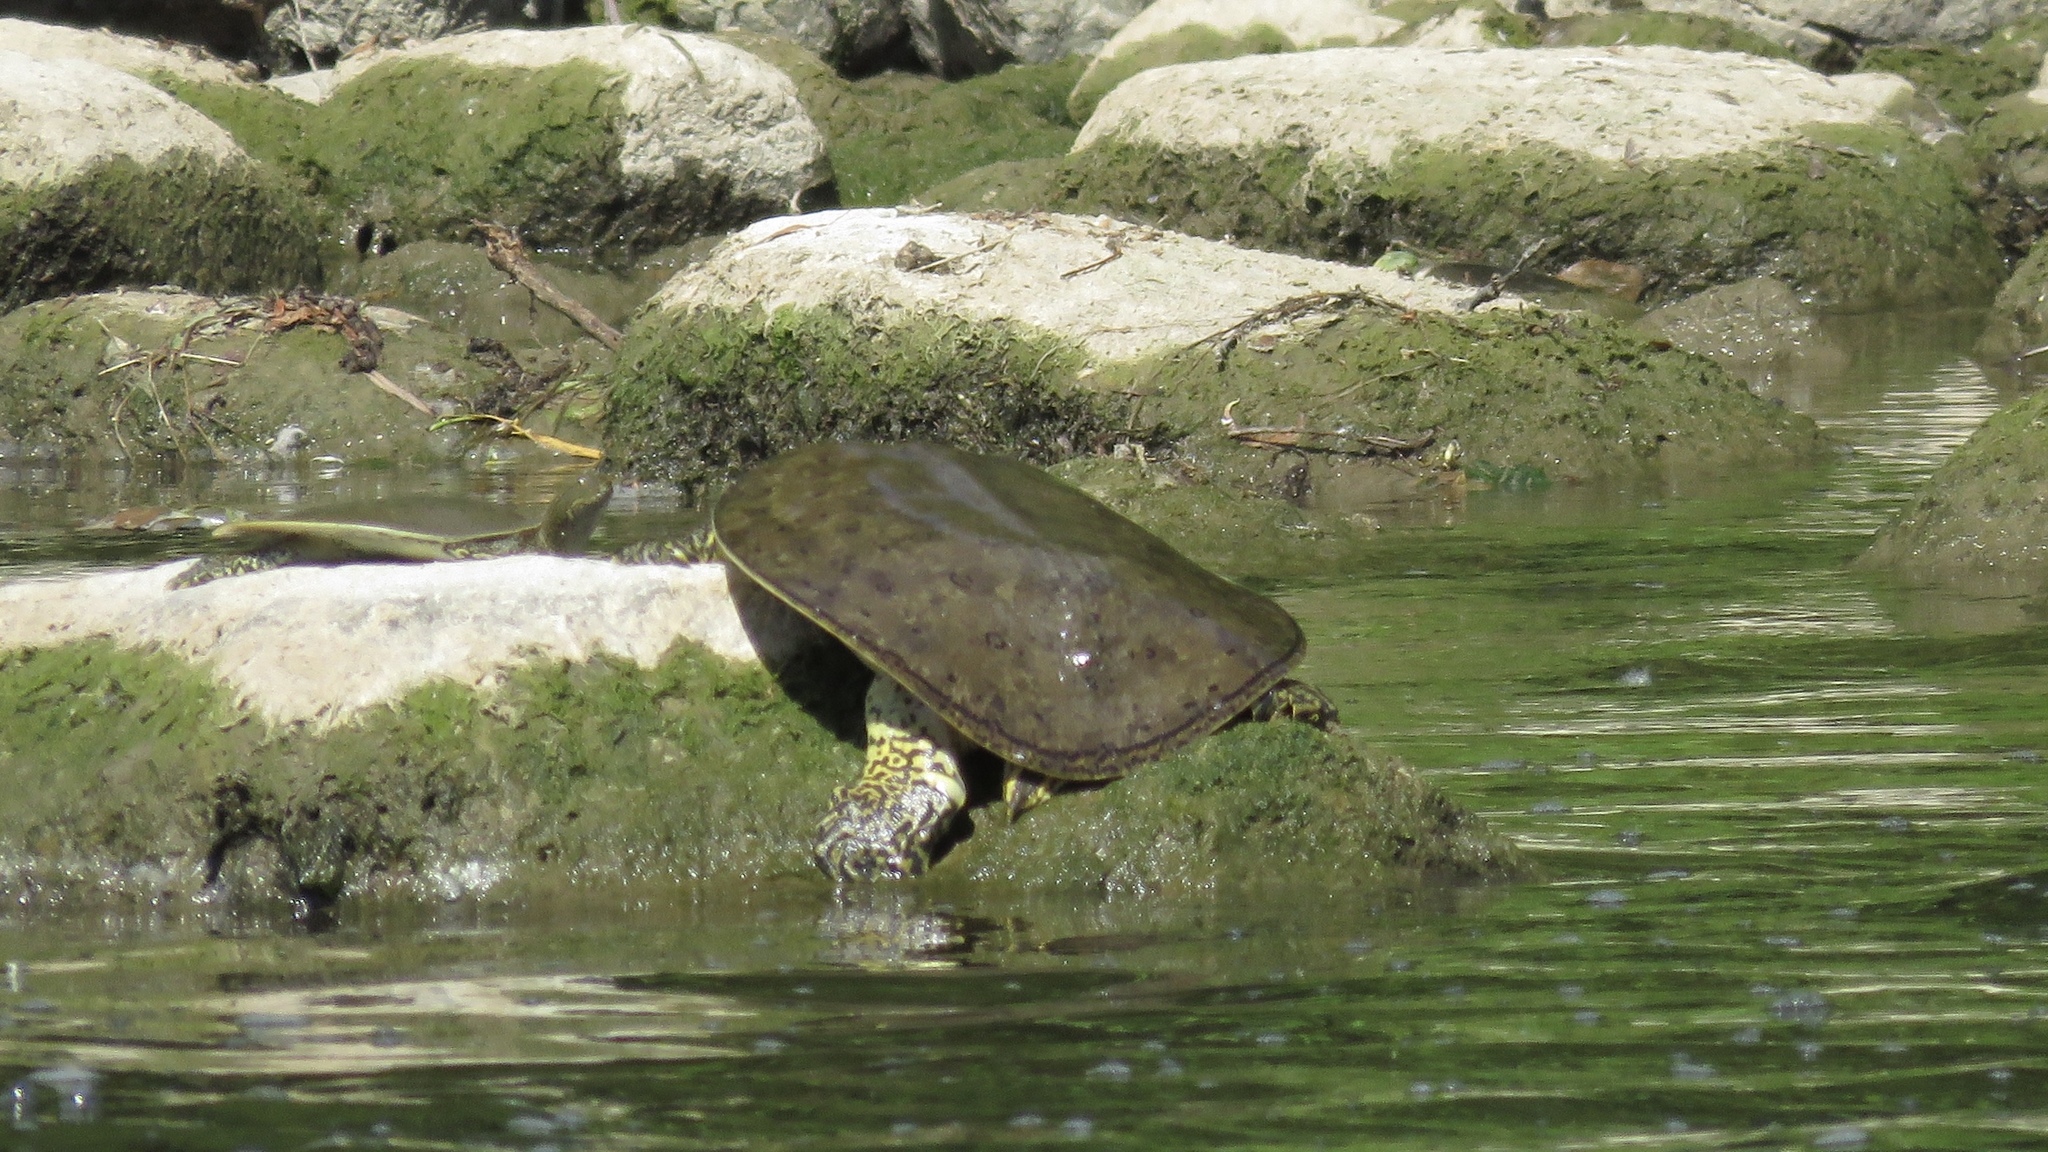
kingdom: Animalia
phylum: Chordata
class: Testudines
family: Trionychidae
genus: Apalone
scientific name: Apalone spinifera
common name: Spiny softshell turtle
